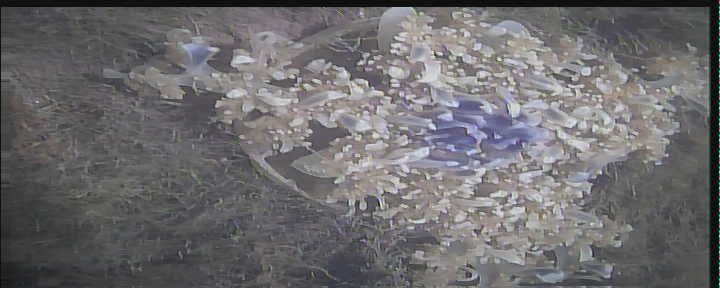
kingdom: Animalia
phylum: Cnidaria
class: Scyphozoa
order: Rhizostomeae
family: Cassiopeidae
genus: Cassiopea
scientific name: Cassiopea andromeda
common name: Upside-down jellyfish
